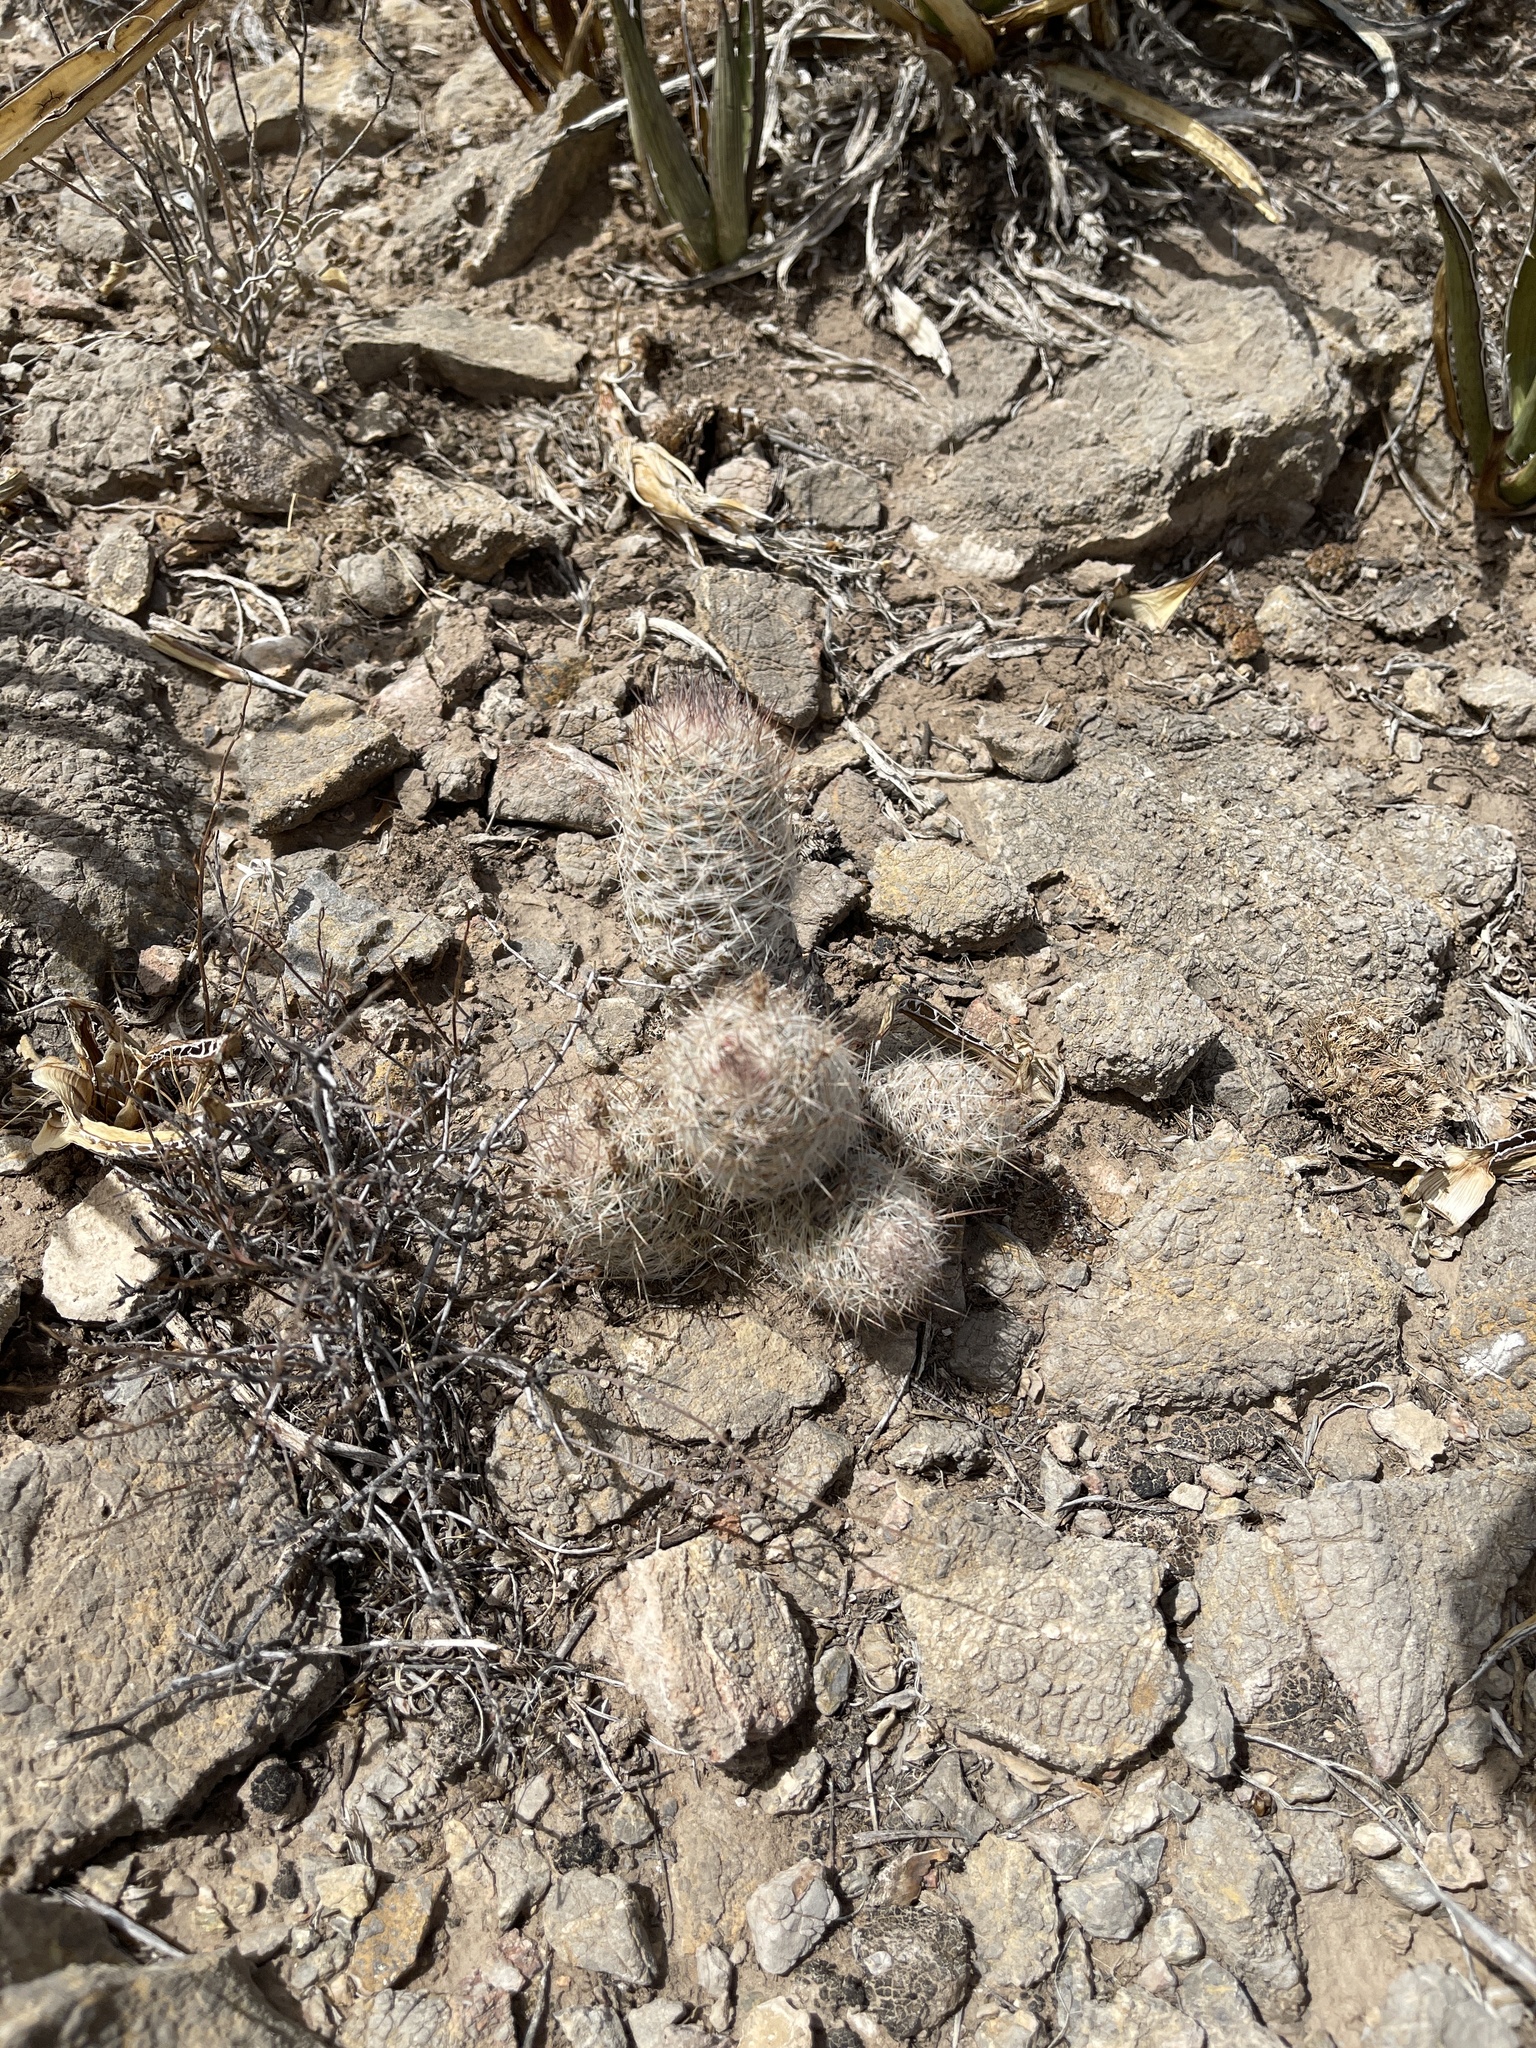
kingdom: Plantae
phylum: Tracheophyta
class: Magnoliopsida
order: Caryophyllales
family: Cactaceae
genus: Pelecyphora
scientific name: Pelecyphora tuberculosa
